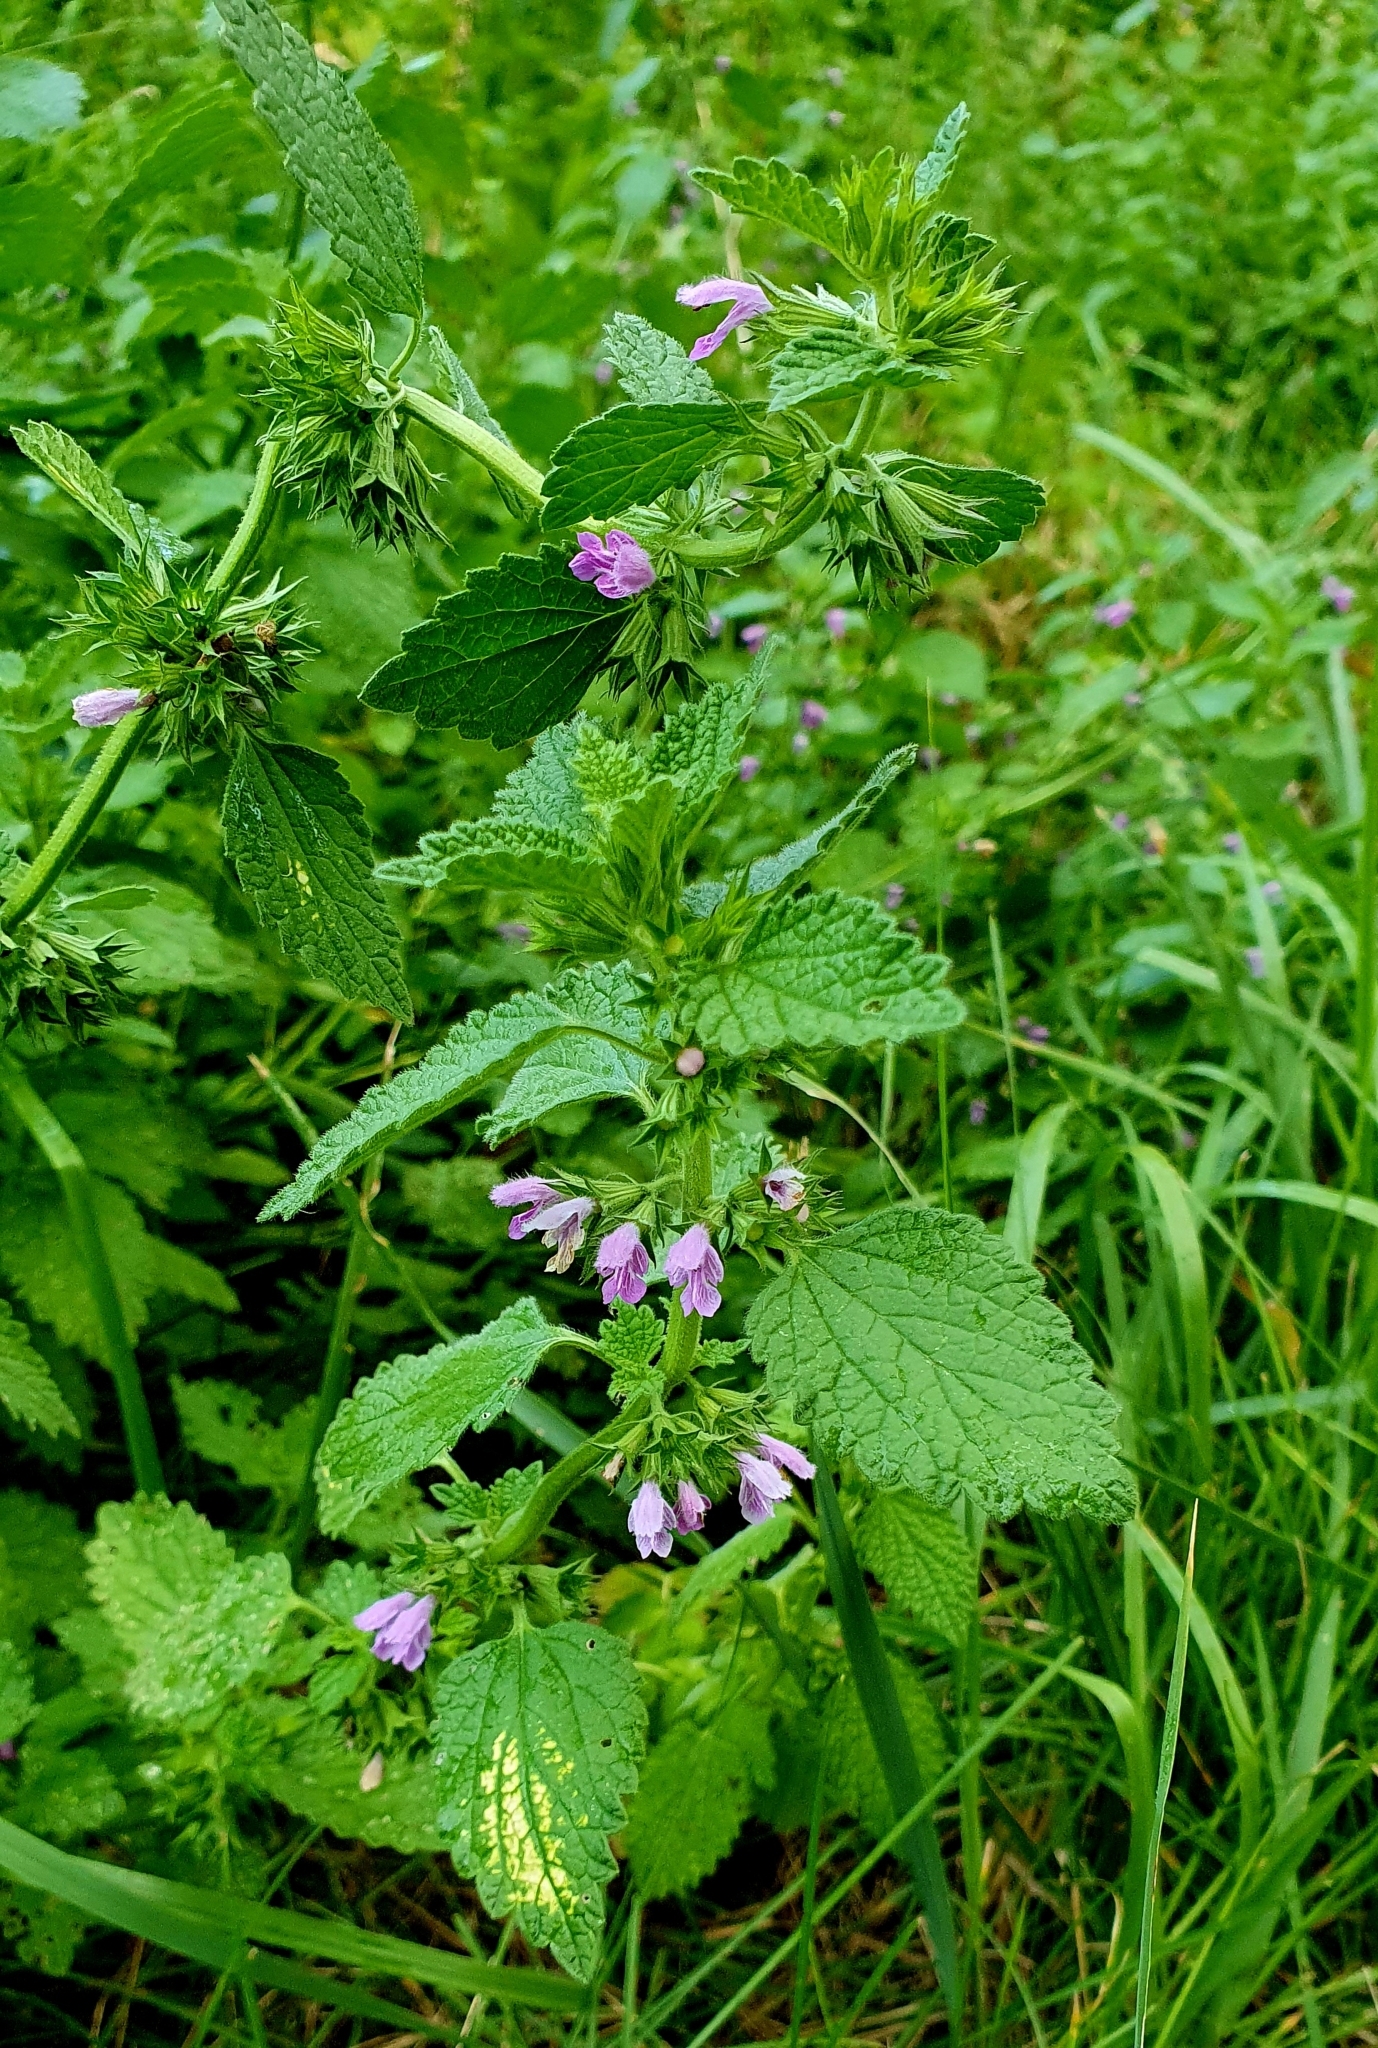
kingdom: Plantae
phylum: Tracheophyta
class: Magnoliopsida
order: Lamiales
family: Lamiaceae
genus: Ballota
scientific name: Ballota nigra
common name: Black horehound
